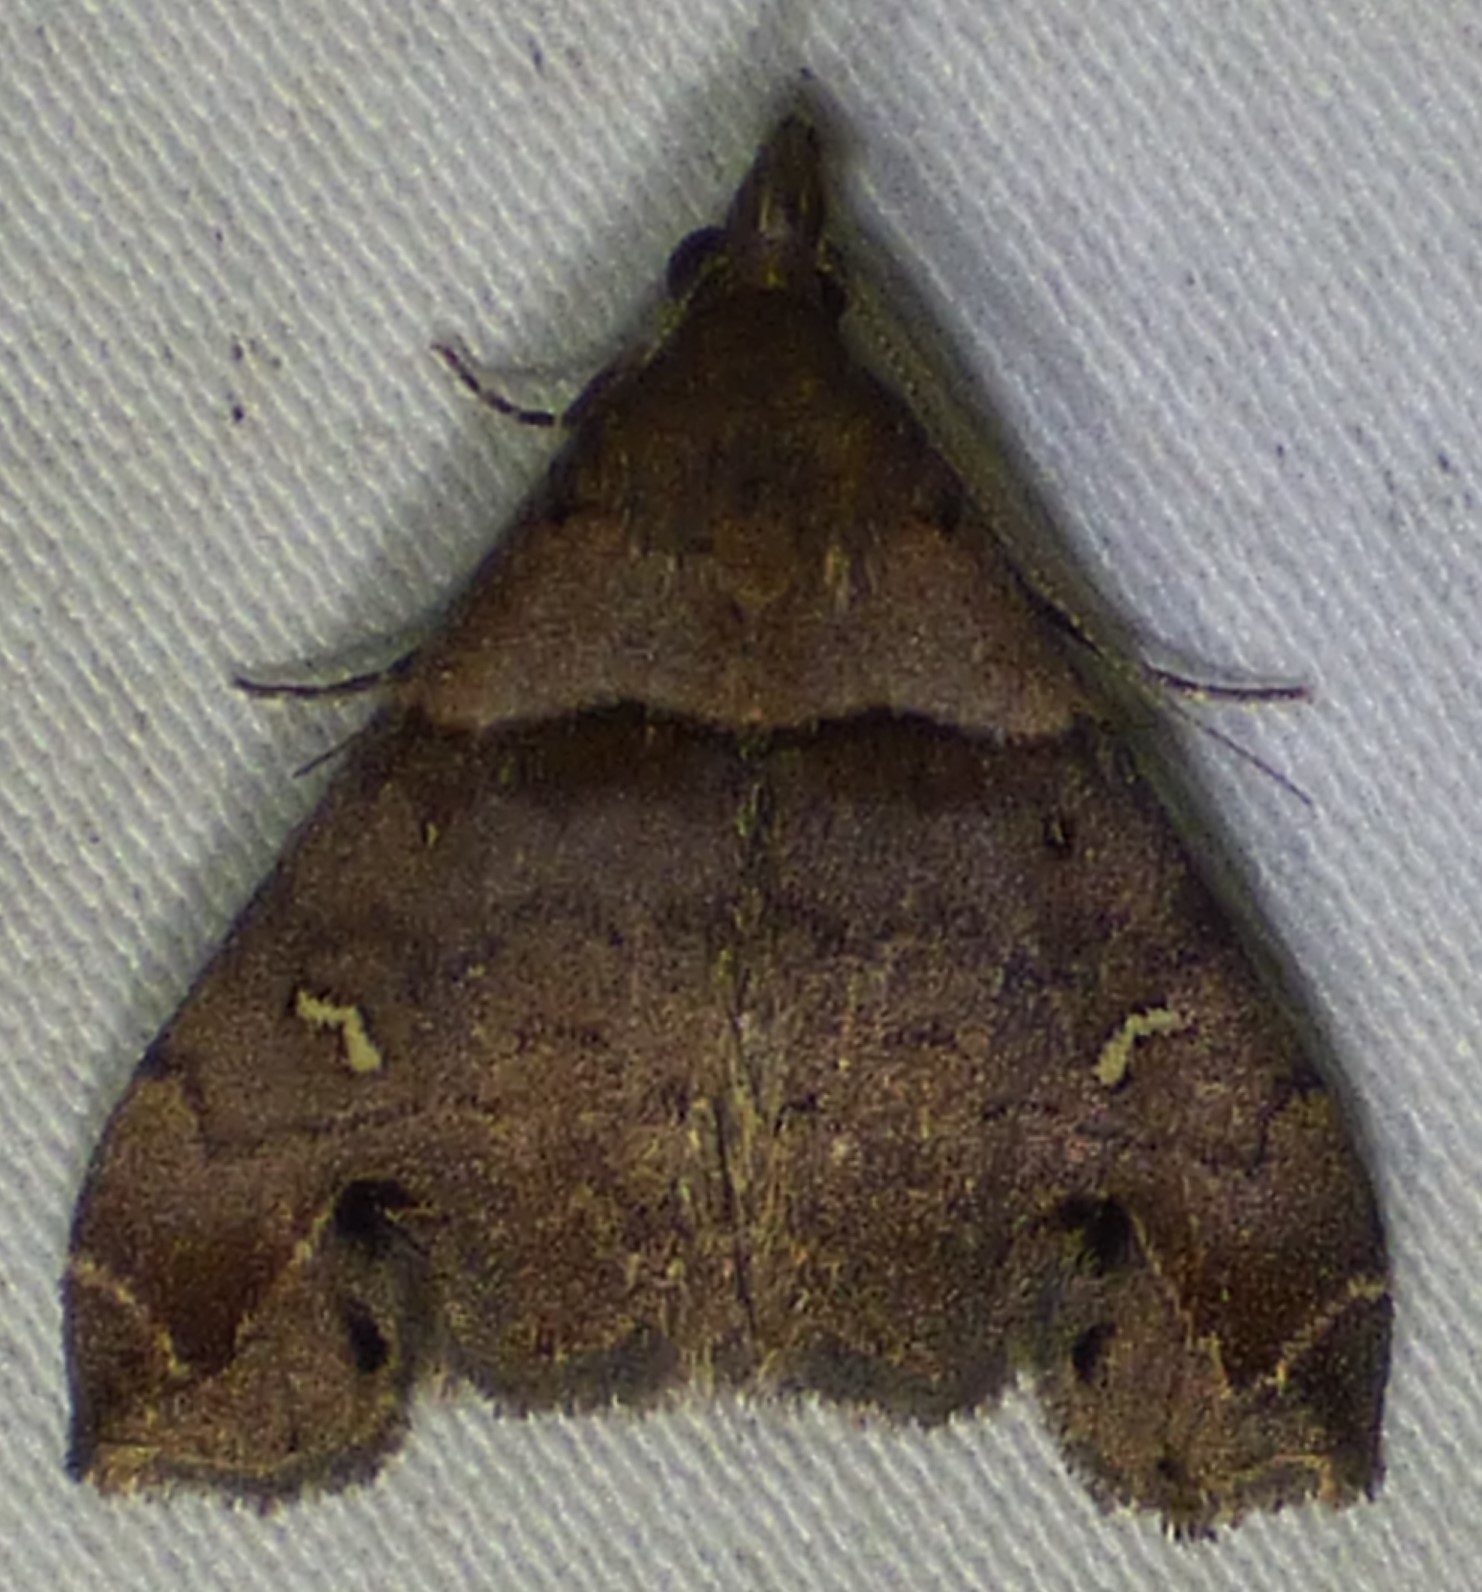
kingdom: Animalia
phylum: Arthropoda
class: Insecta
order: Lepidoptera
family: Erebidae
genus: Lascoria
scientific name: Lascoria ambigualis
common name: Ambiguous moth
